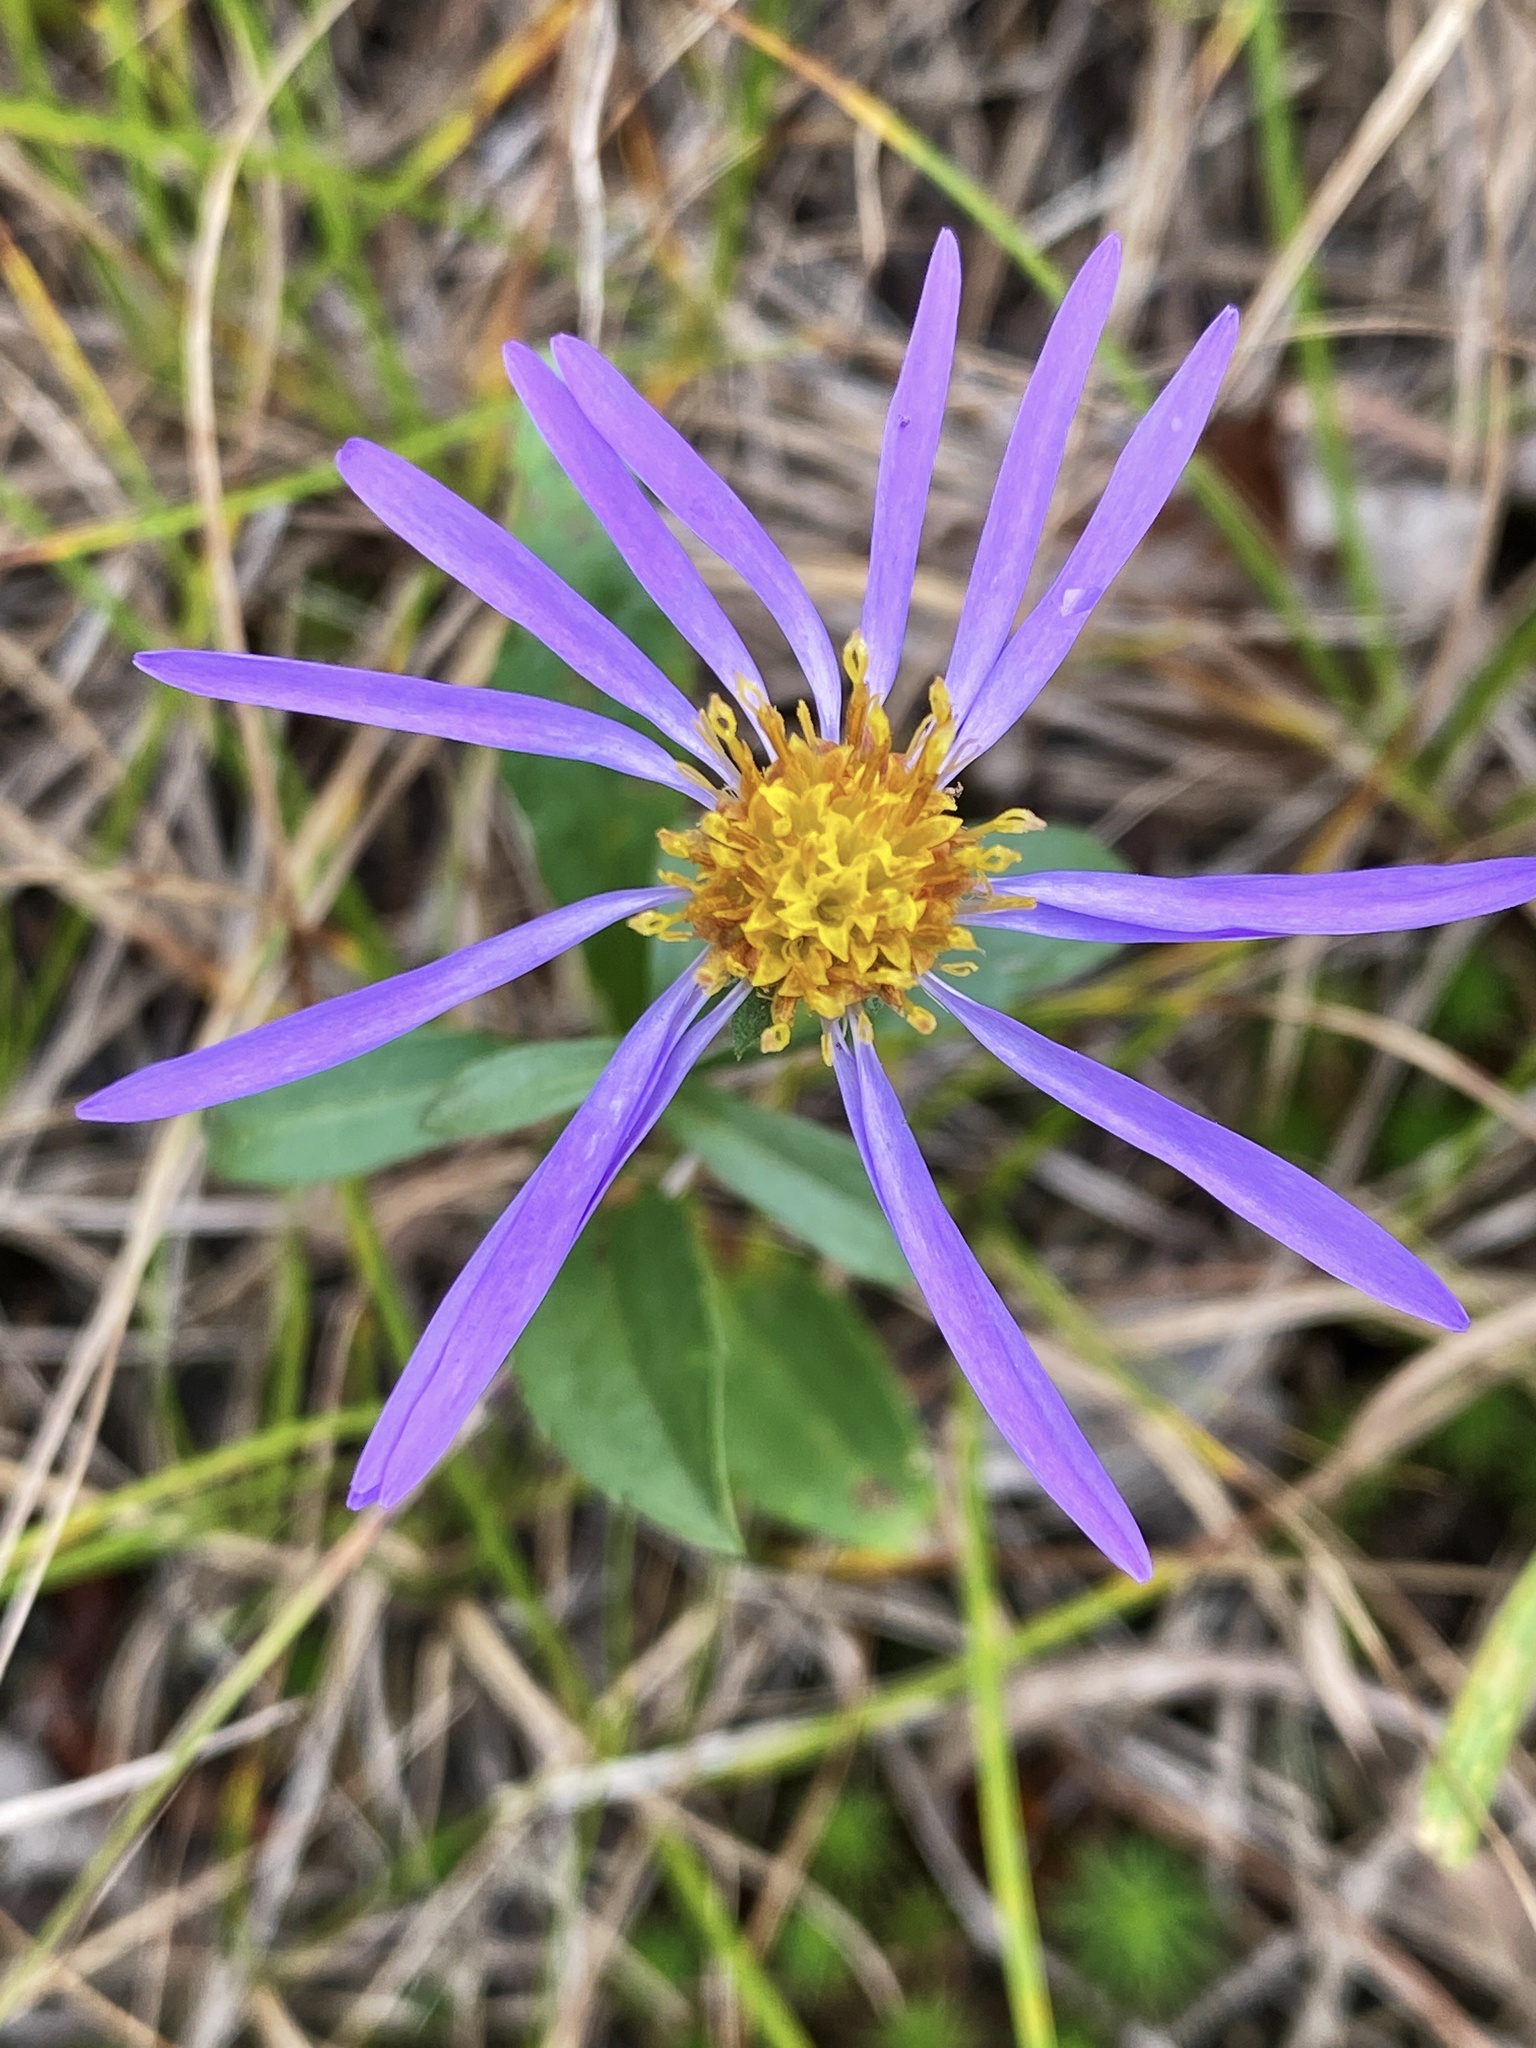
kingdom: Plantae
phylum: Tracheophyta
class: Magnoliopsida
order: Asterales
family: Asteraceae
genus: Eurybia
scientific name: Eurybia spectabilis
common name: Low showy aster
